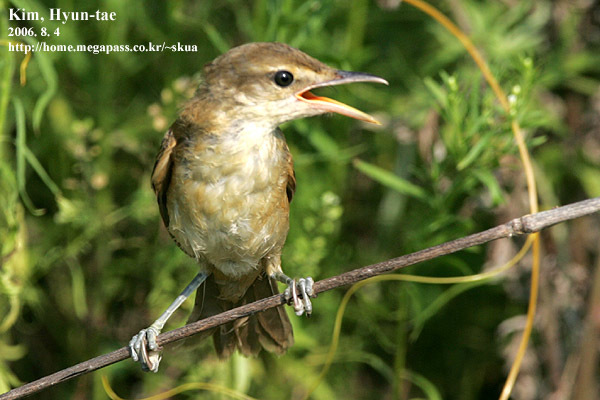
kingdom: Animalia
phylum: Chordata
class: Aves
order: Passeriformes
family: Acrocephalidae
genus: Acrocephalus
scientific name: Acrocephalus orientalis
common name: Oriental reed warbler
